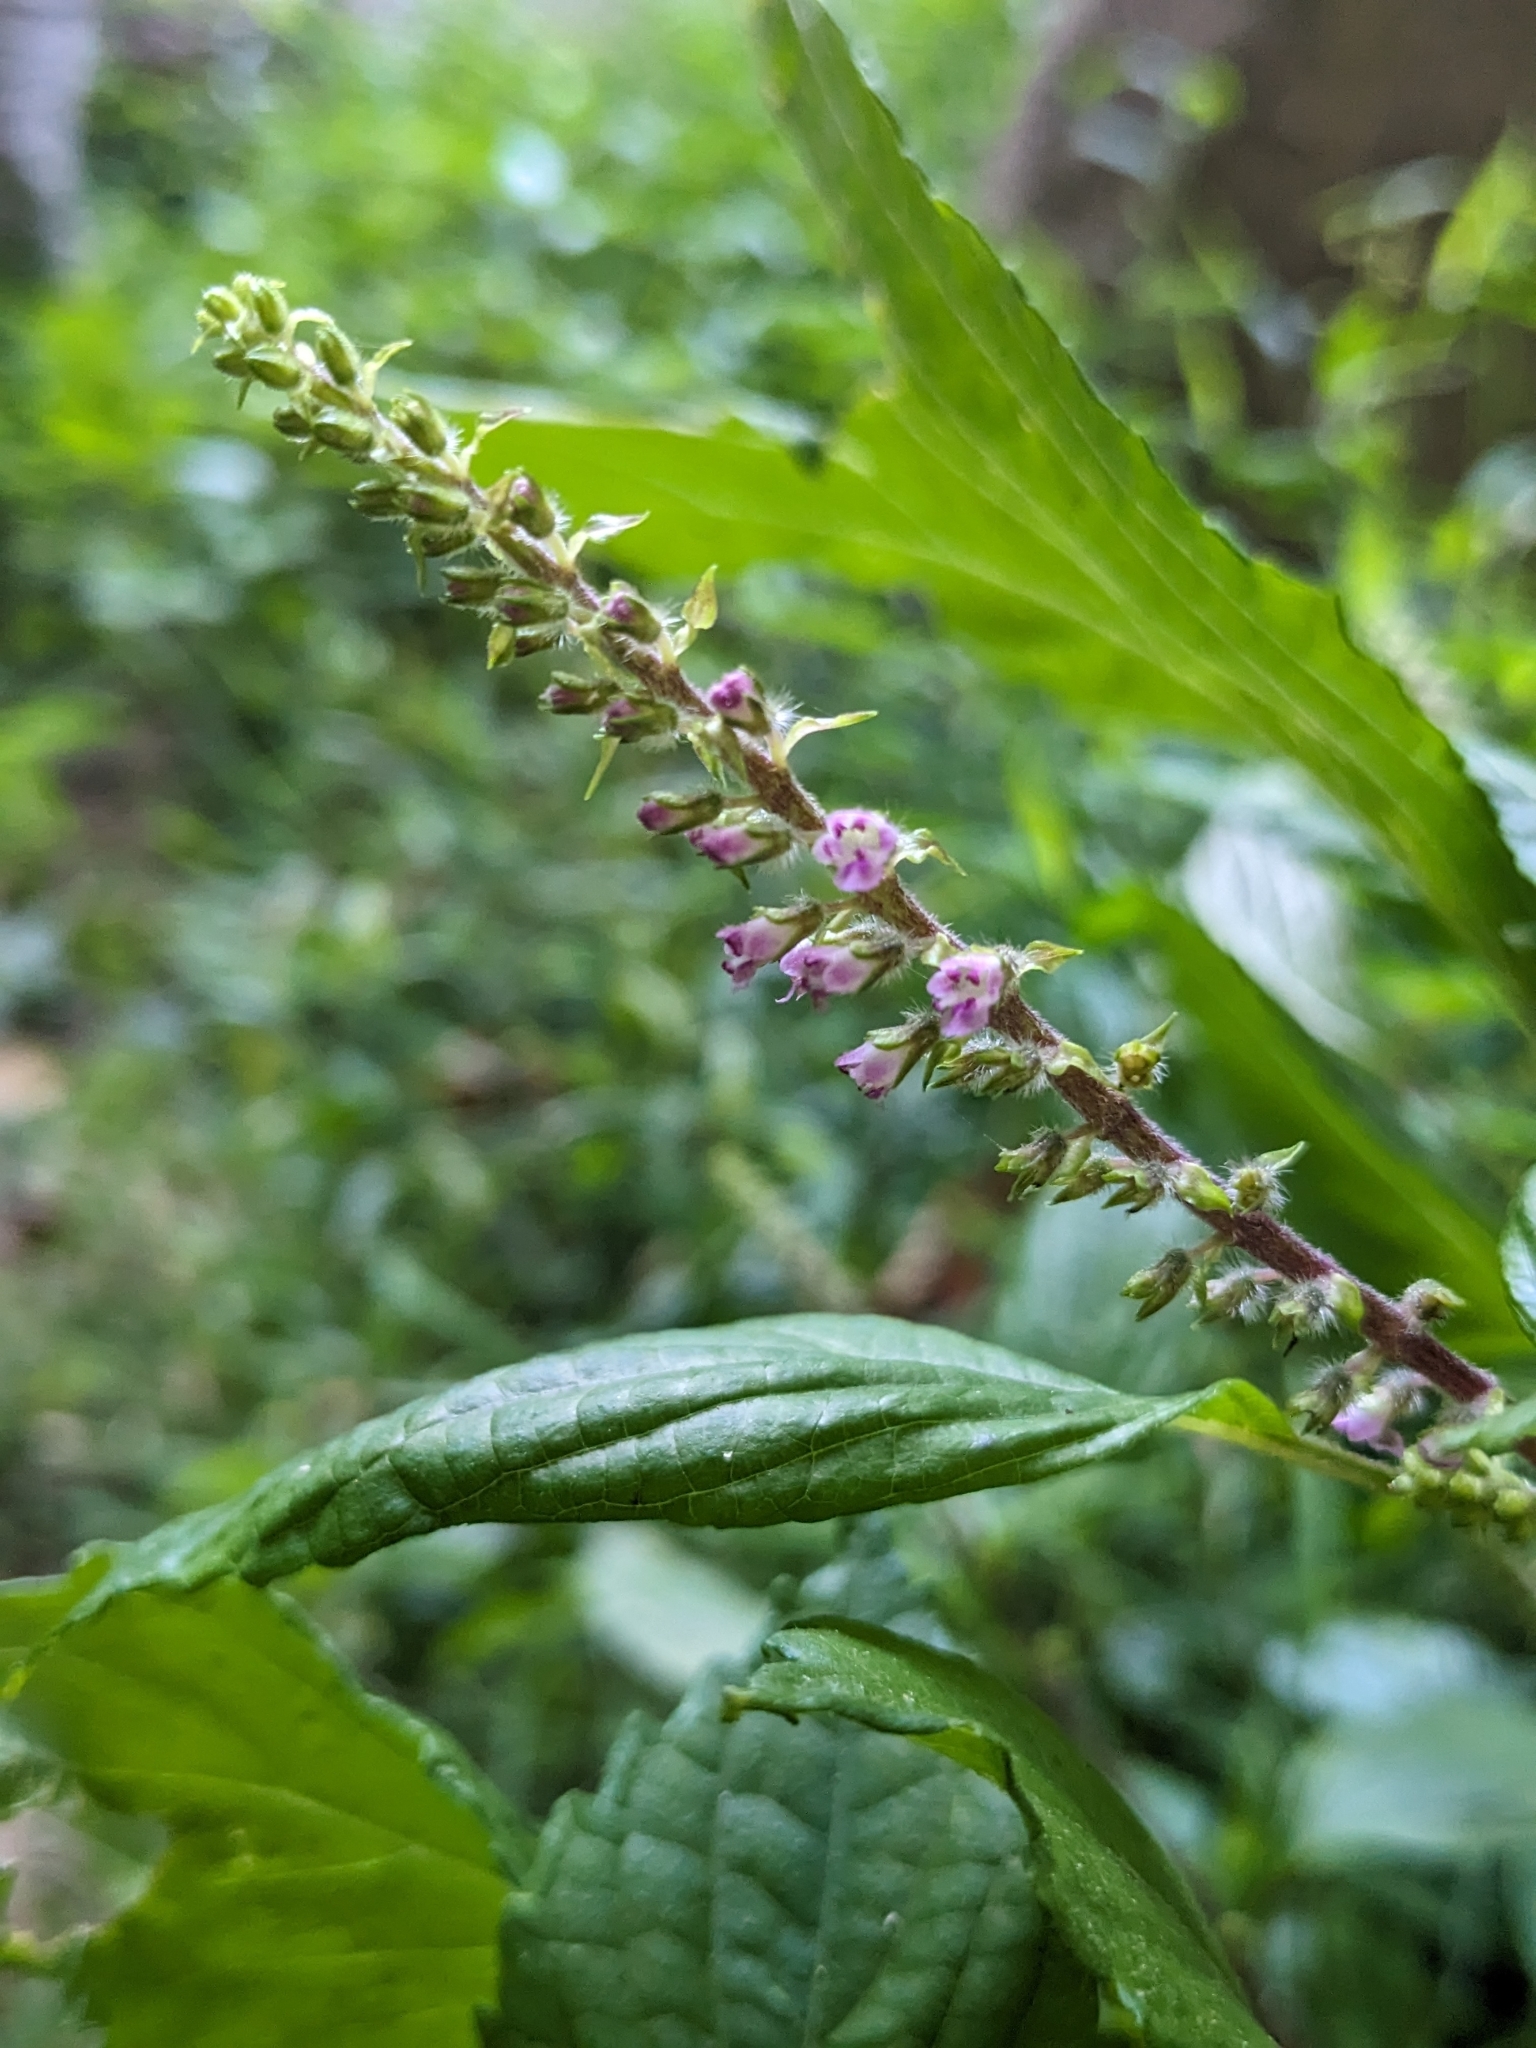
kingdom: Plantae
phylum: Tracheophyta
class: Magnoliopsida
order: Lamiales
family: Lamiaceae
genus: Perilla
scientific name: Perilla frutescens
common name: Perilla
